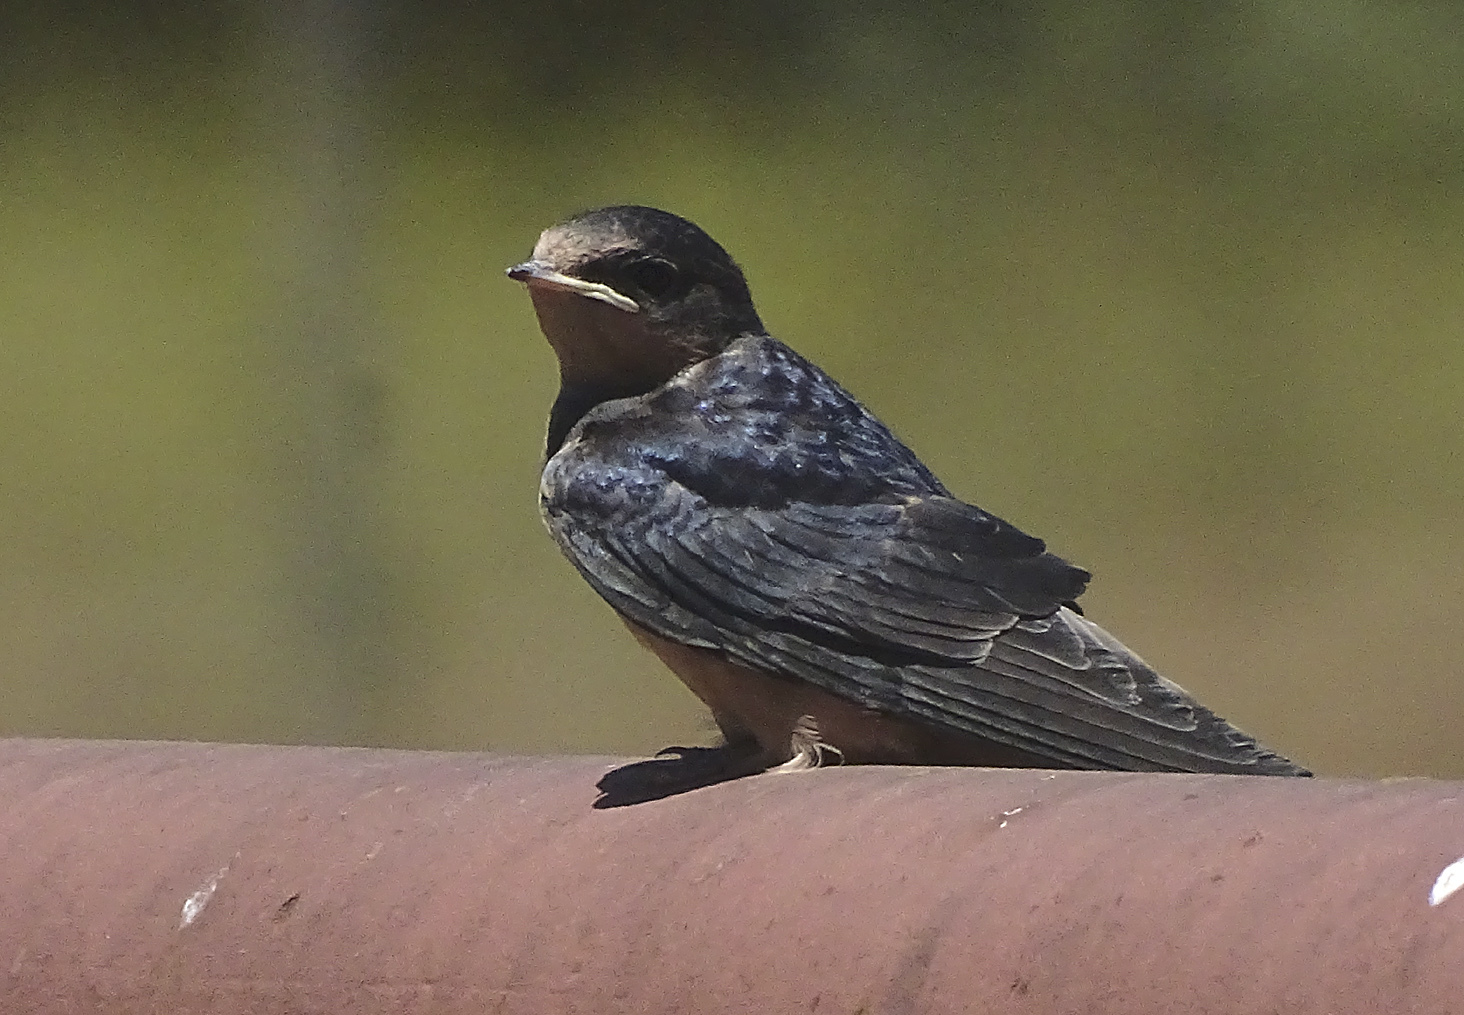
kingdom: Animalia
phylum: Chordata
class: Aves
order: Passeriformes
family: Hirundinidae
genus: Hirundo
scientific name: Hirundo rustica
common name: Barn swallow
